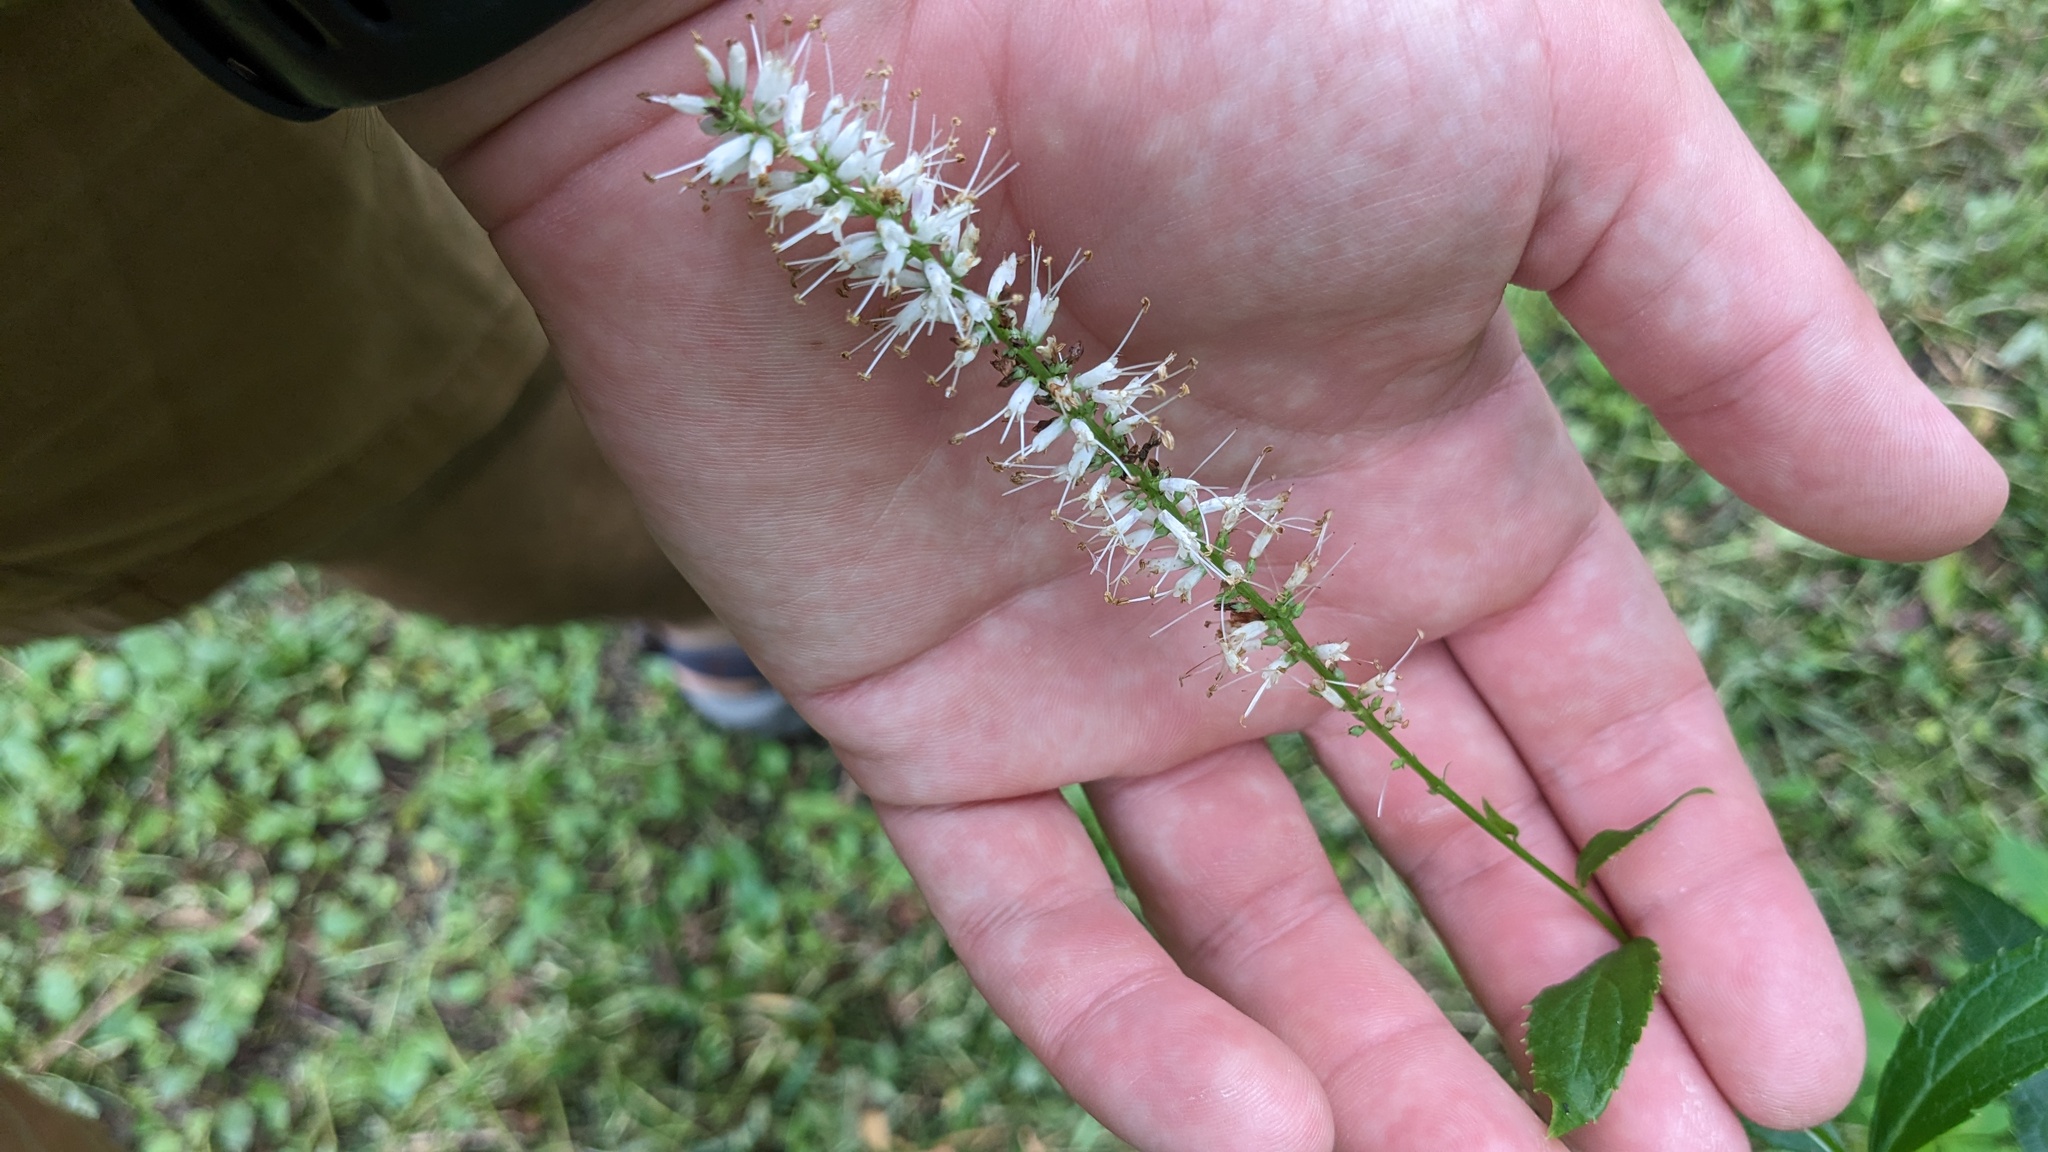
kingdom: Plantae
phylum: Tracheophyta
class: Magnoliopsida
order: Lamiales
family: Plantaginaceae
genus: Veronicastrum
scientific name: Veronicastrum virginicum
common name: Blackroot
